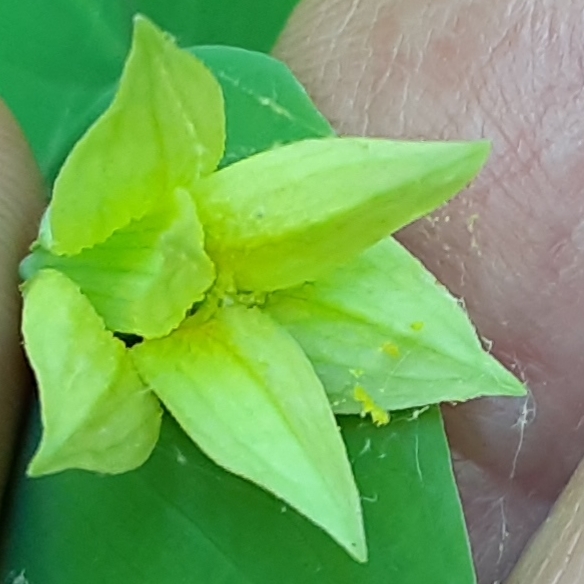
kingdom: Plantae
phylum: Tracheophyta
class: Liliopsida
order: Liliales
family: Colchicaceae
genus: Uvularia
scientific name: Uvularia perfoliata
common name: Perfoliate bellwort
